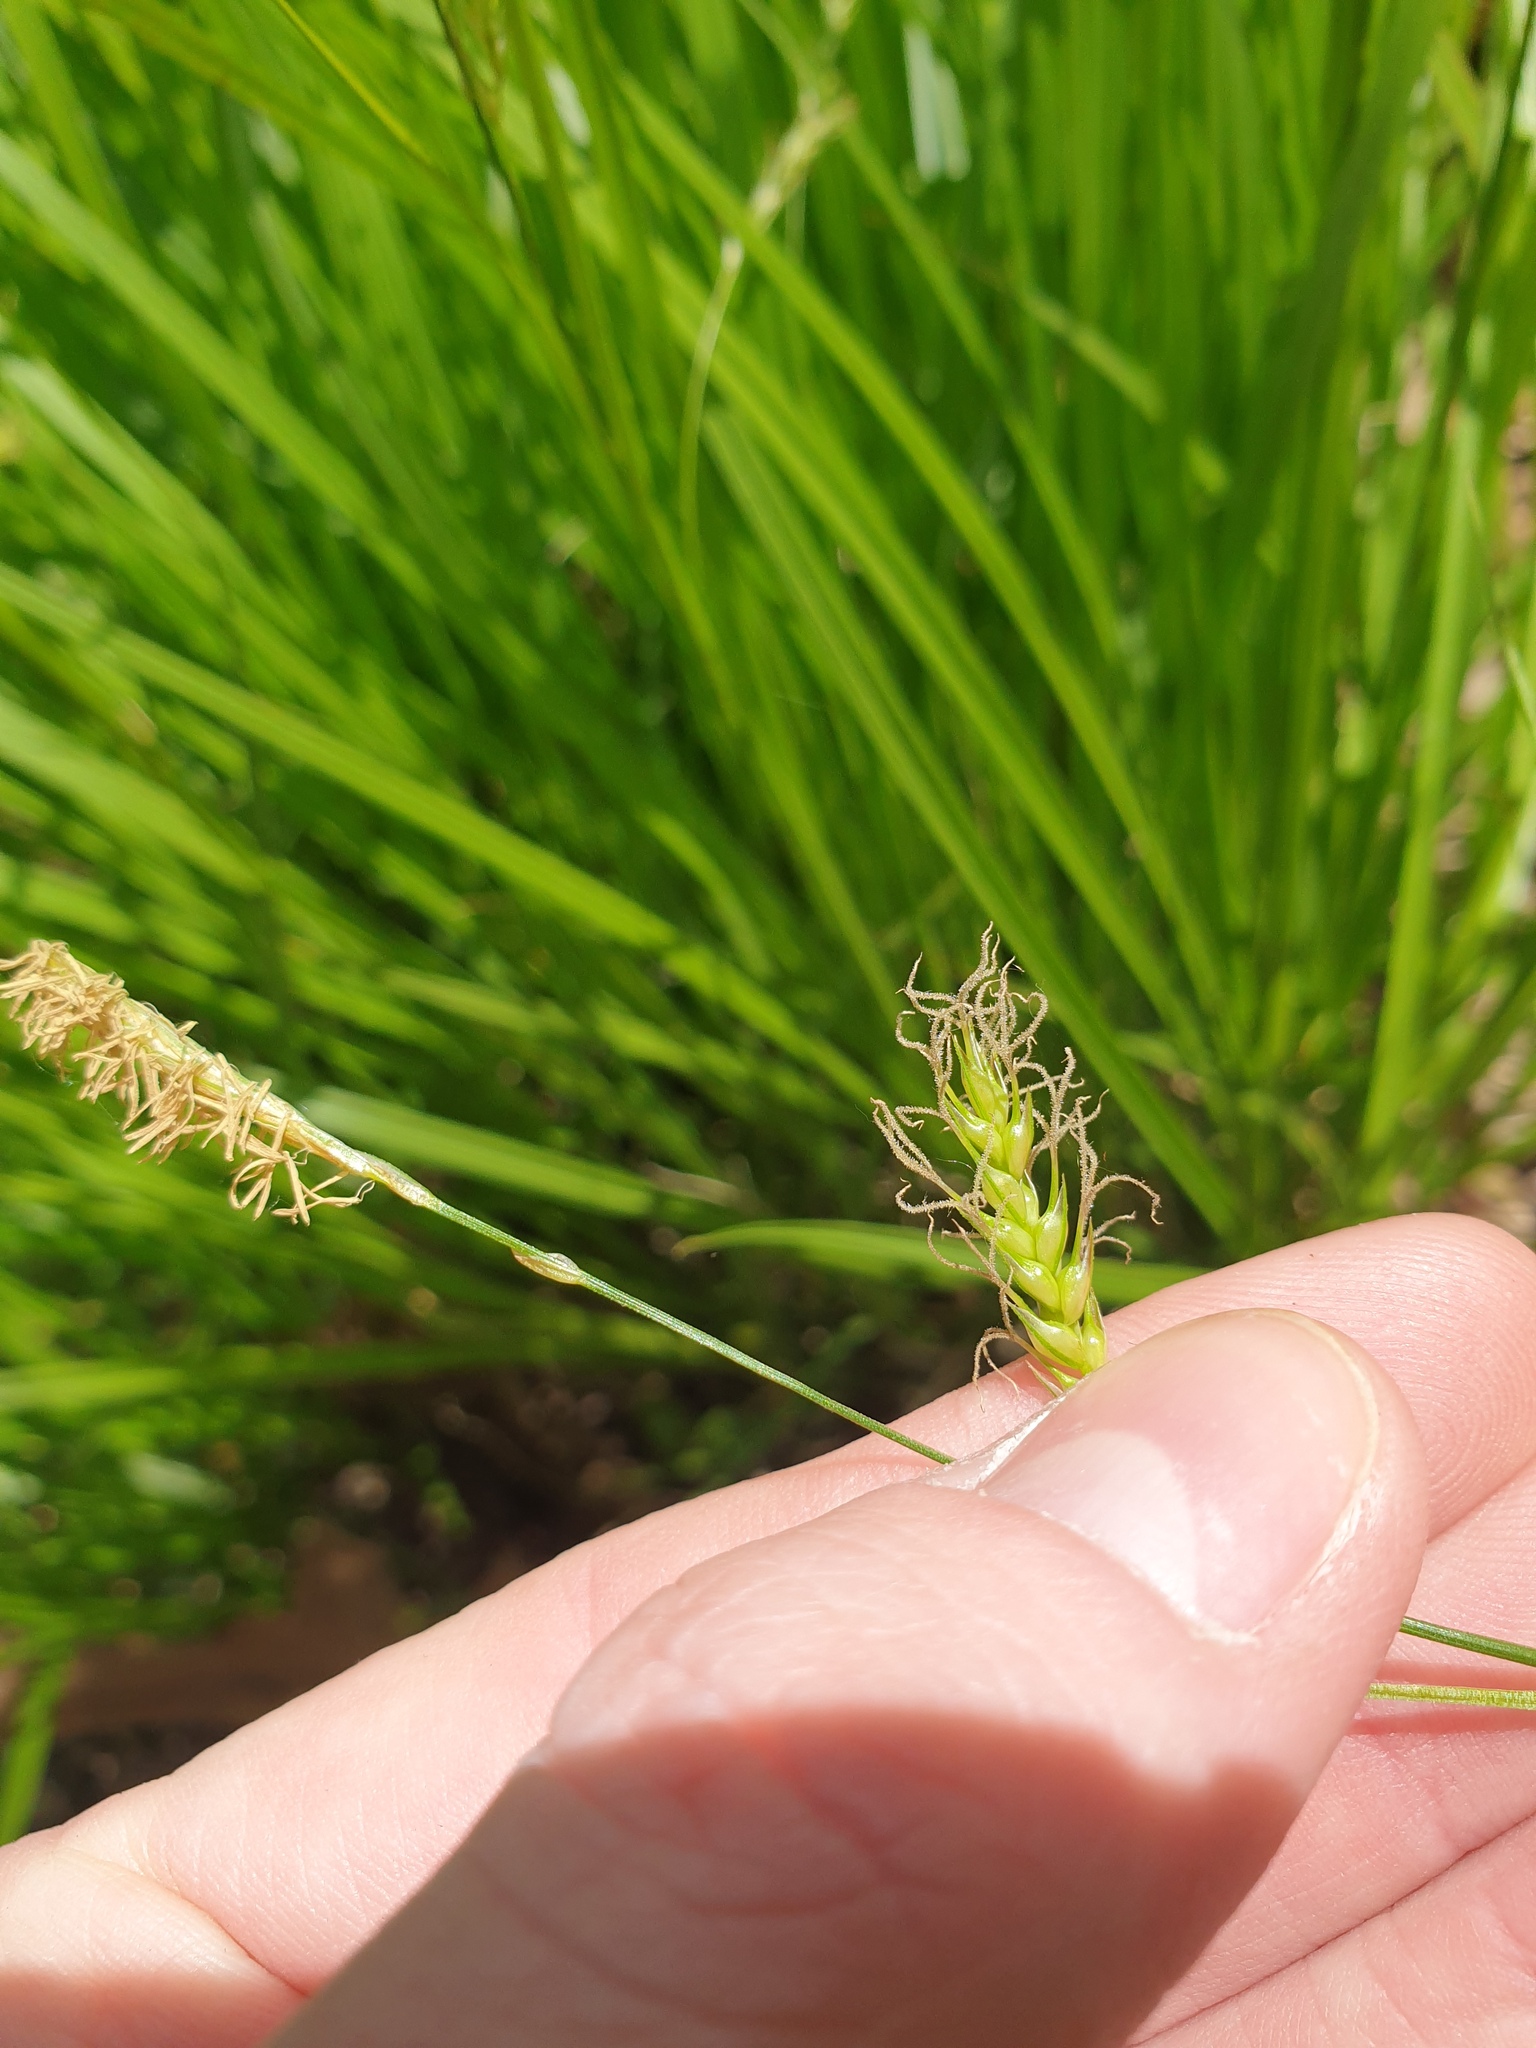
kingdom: Plantae
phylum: Tracheophyta
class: Liliopsida
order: Poales
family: Cyperaceae
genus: Carex
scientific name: Carex sprengelii
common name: Long-beaked sedge
